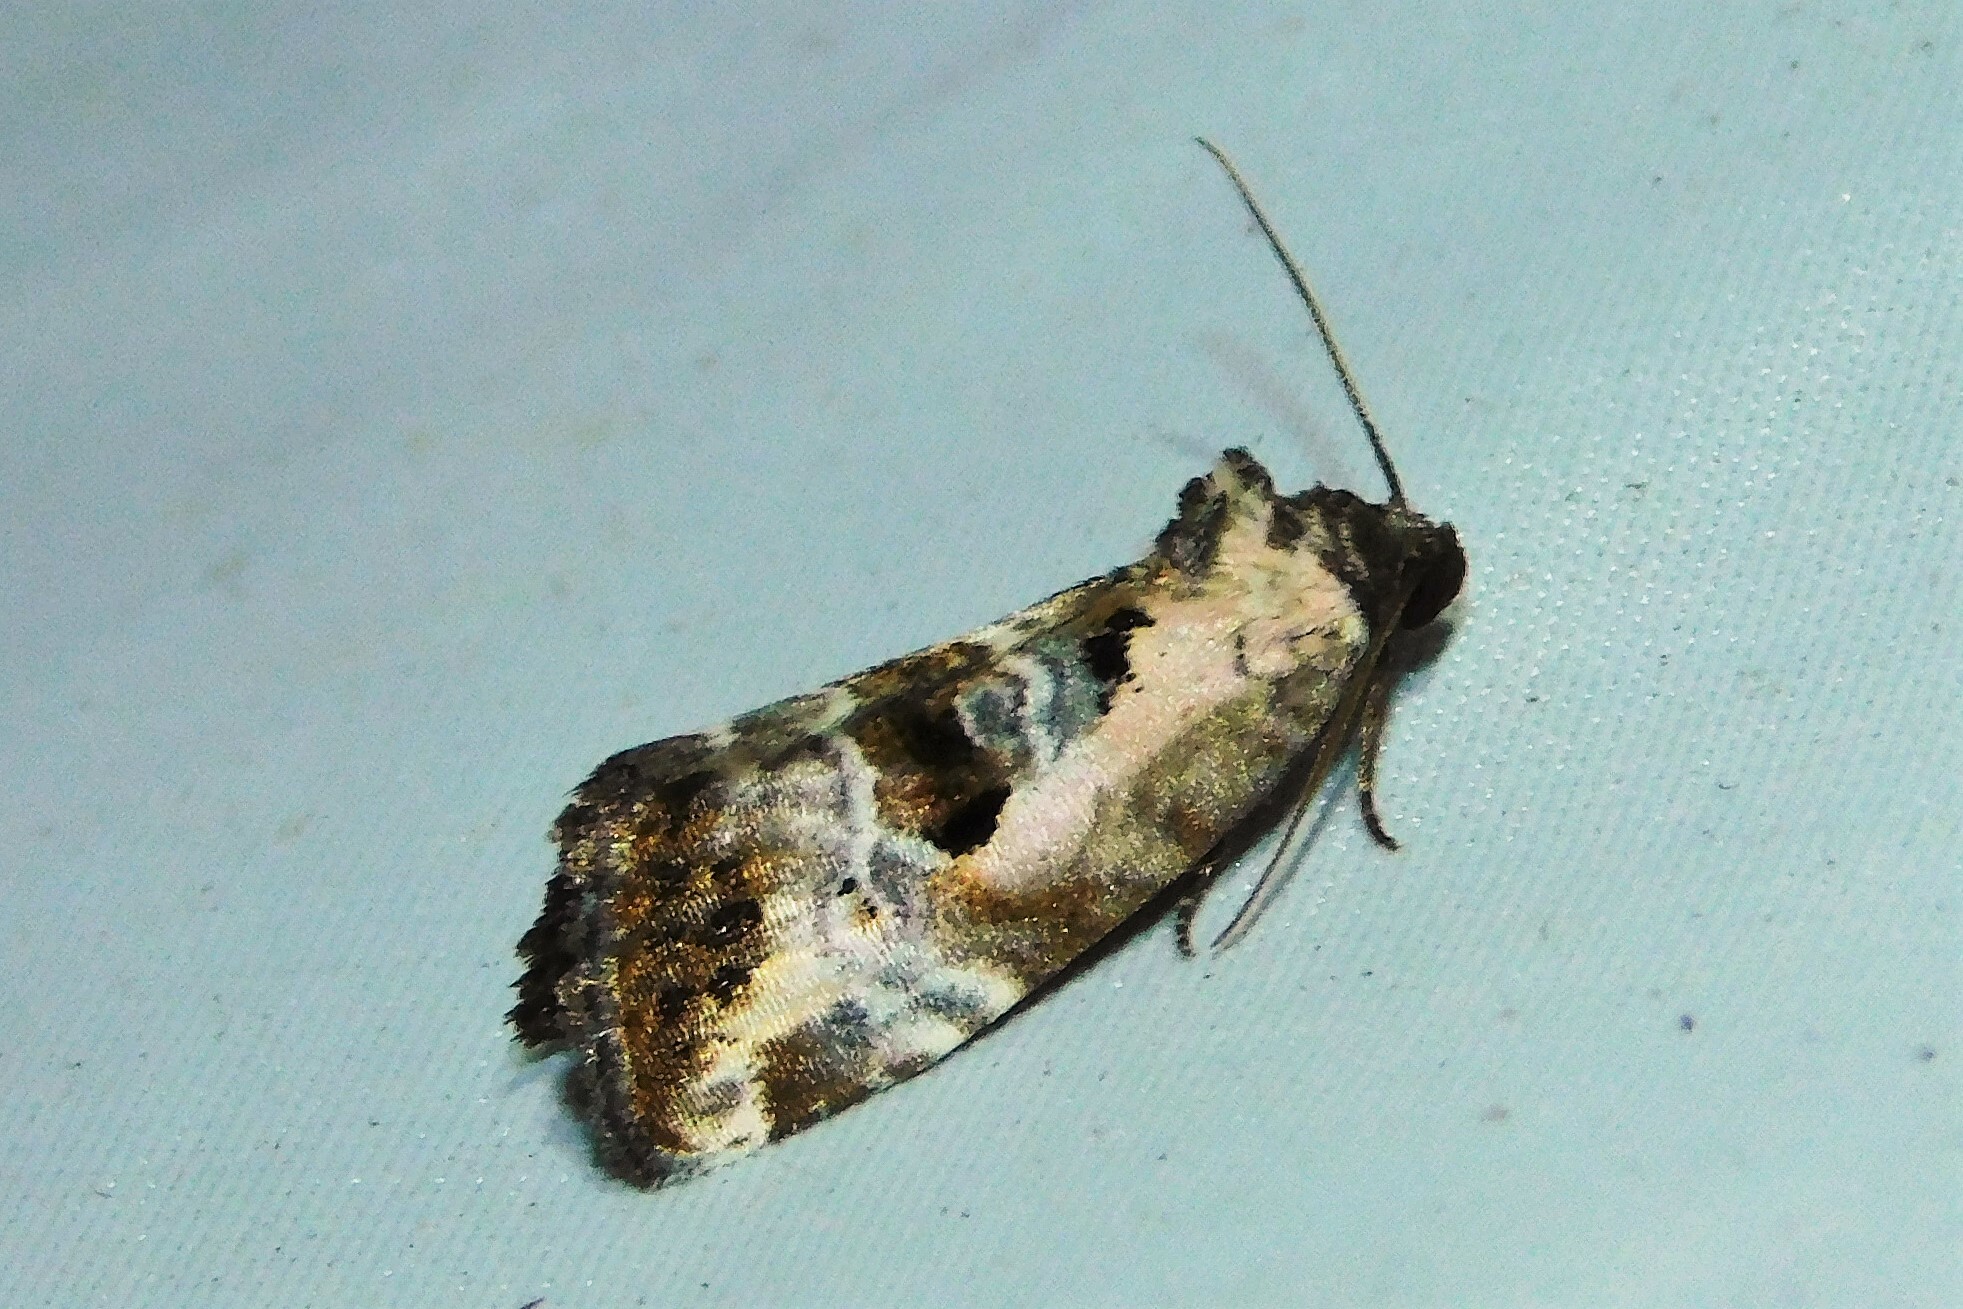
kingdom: Animalia
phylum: Arthropoda
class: Insecta
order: Lepidoptera
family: Noctuidae
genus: Elaphria
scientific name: Elaphria venustula
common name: Rosy marbled
